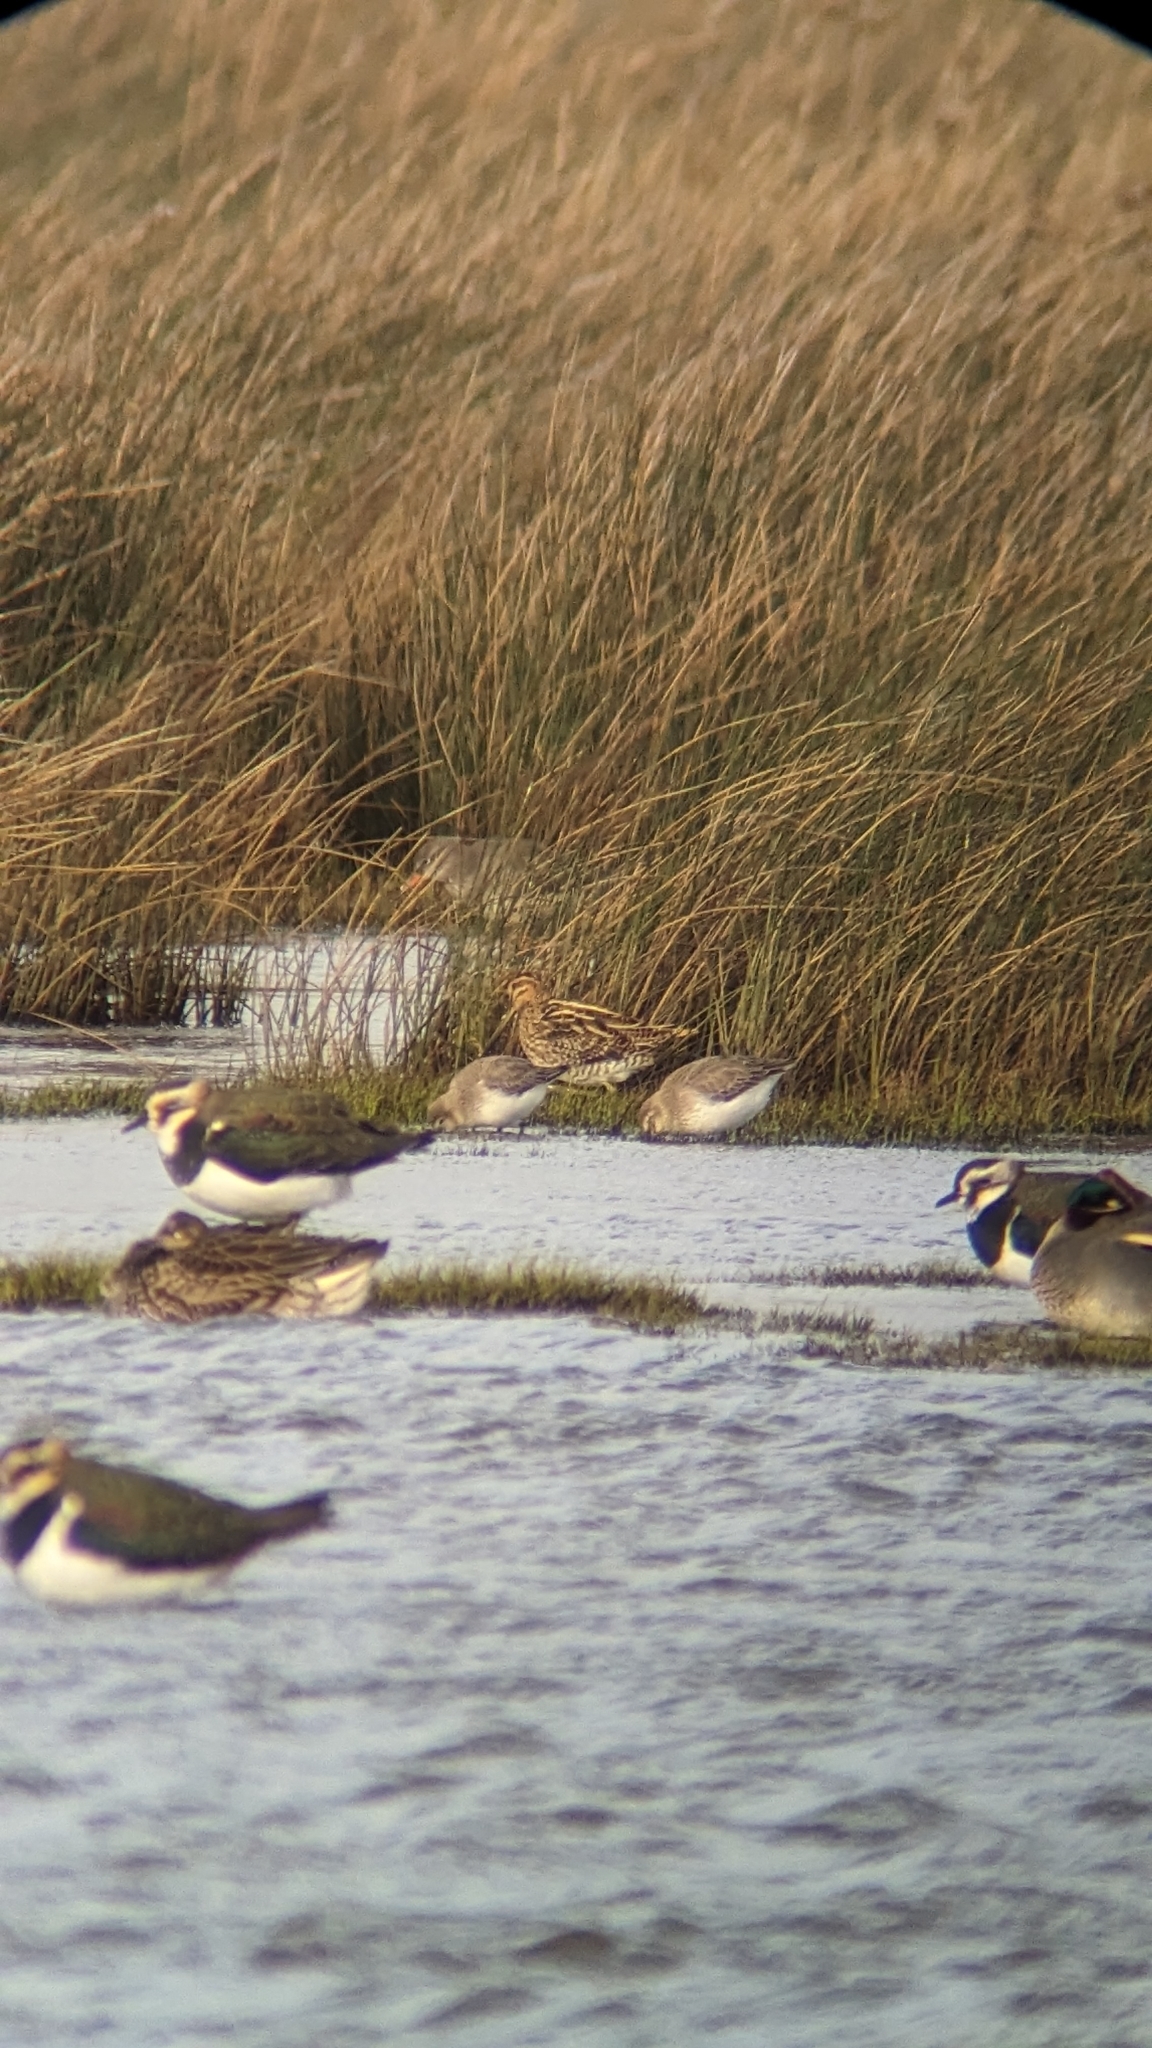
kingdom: Animalia
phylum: Chordata
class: Aves
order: Charadriiformes
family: Scolopacidae
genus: Gallinago
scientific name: Gallinago gallinago
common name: Common snipe
